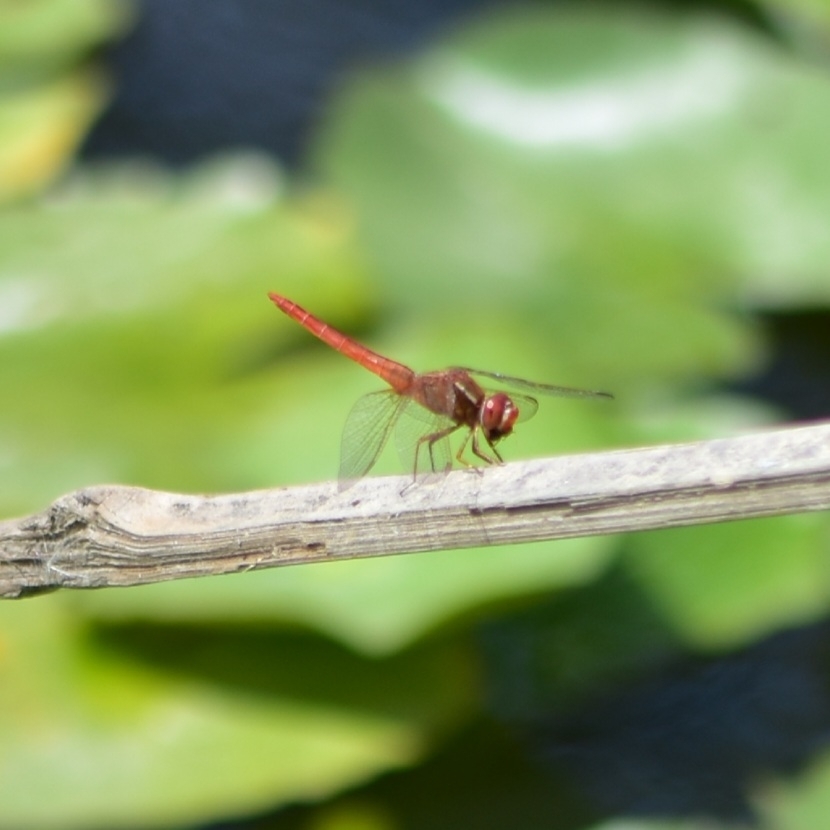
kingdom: Animalia
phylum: Arthropoda
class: Insecta
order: Odonata
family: Libellulidae
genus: Crocothemis
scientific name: Crocothemis servilia
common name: Scarlet skimmer
